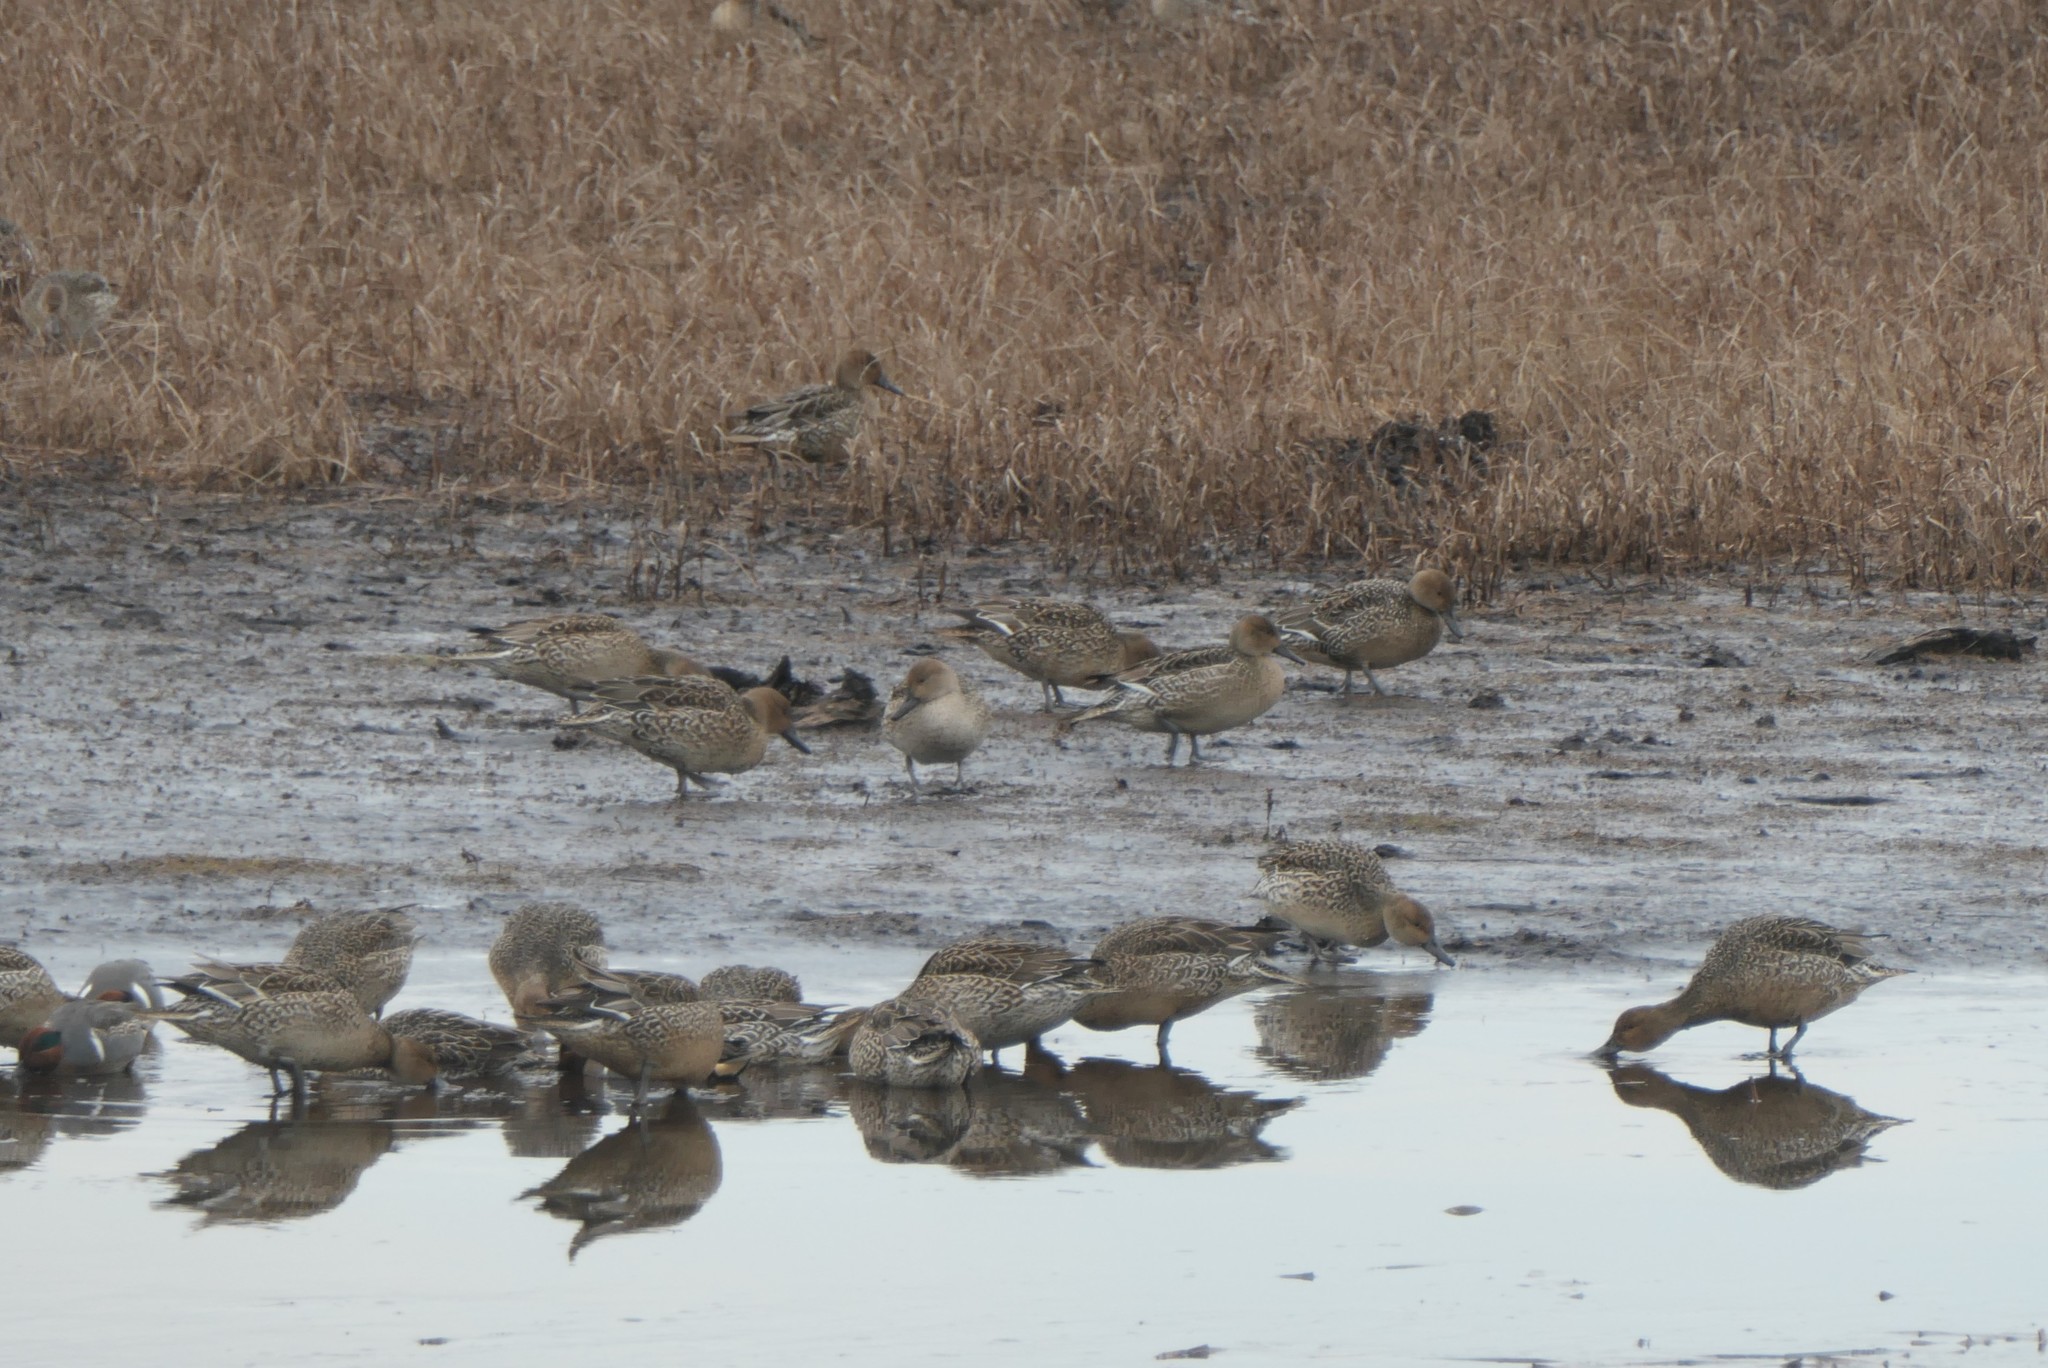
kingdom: Animalia
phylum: Chordata
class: Aves
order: Anseriformes
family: Anatidae
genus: Anas
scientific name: Anas acuta
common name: Northern pintail
